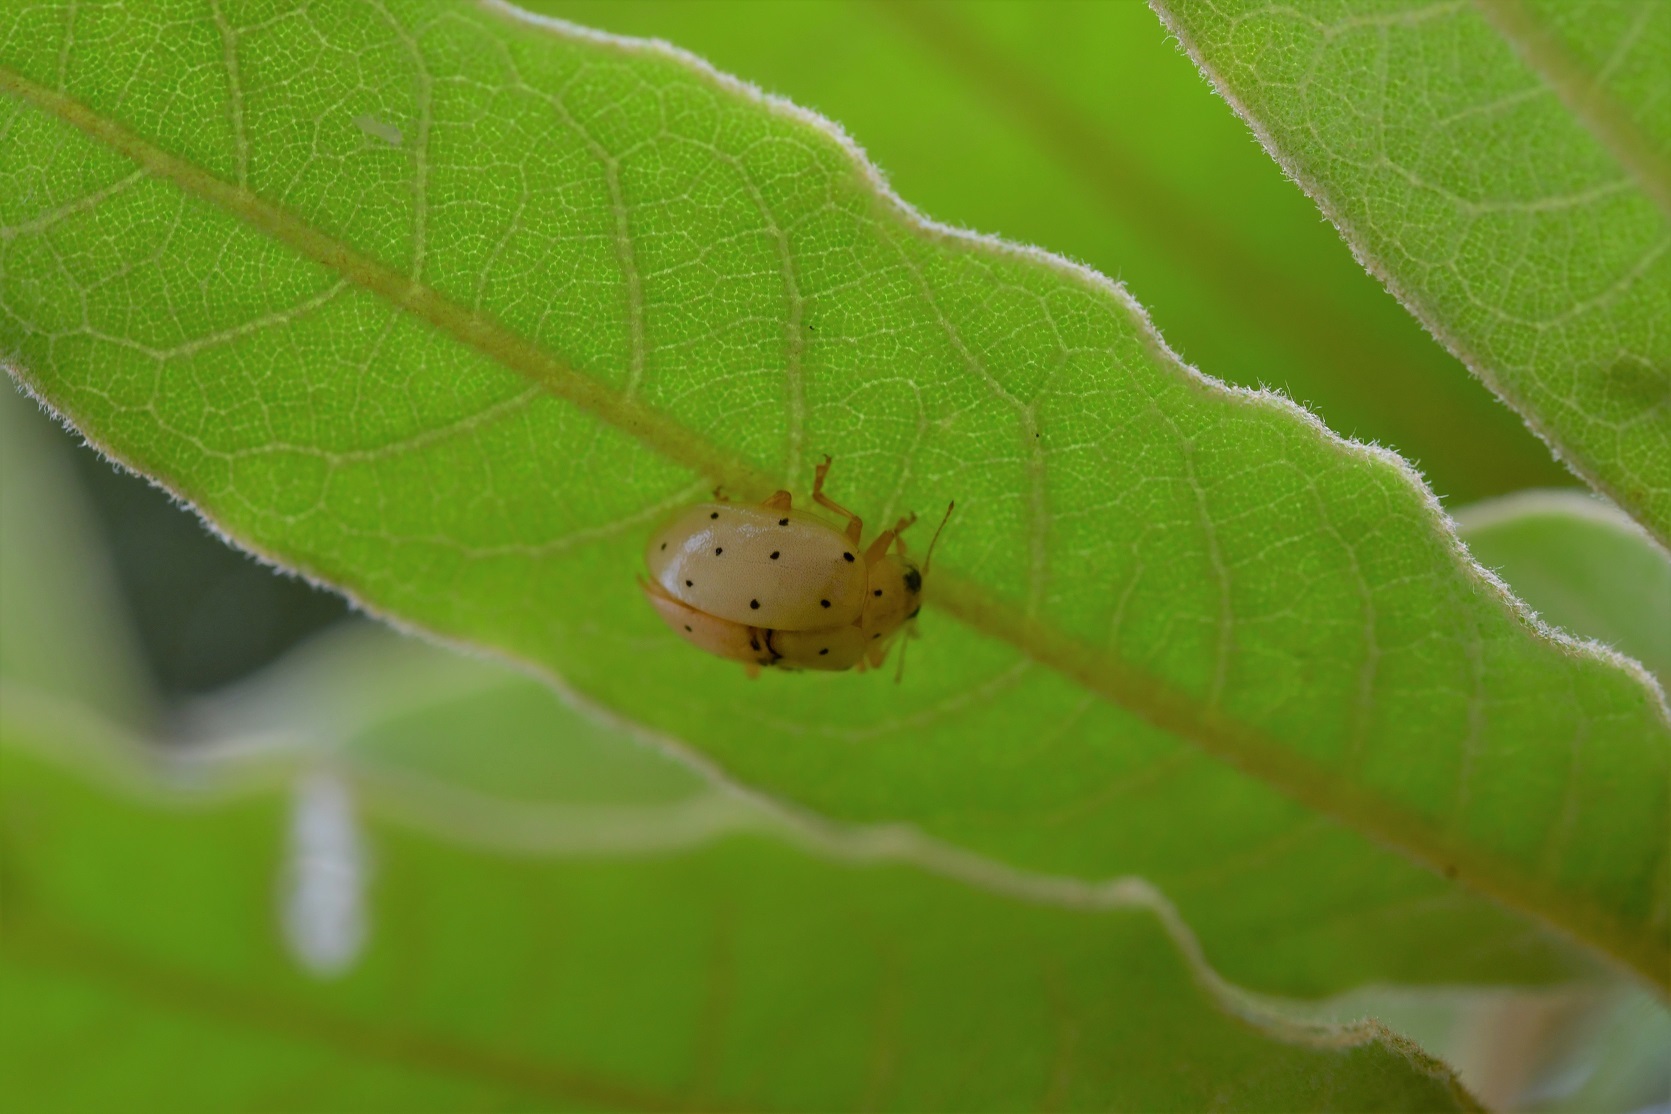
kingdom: Animalia
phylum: Arthropoda
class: Insecta
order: Coleoptera
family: Coccinellidae
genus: Neohalyzia
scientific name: Neohalyzia
